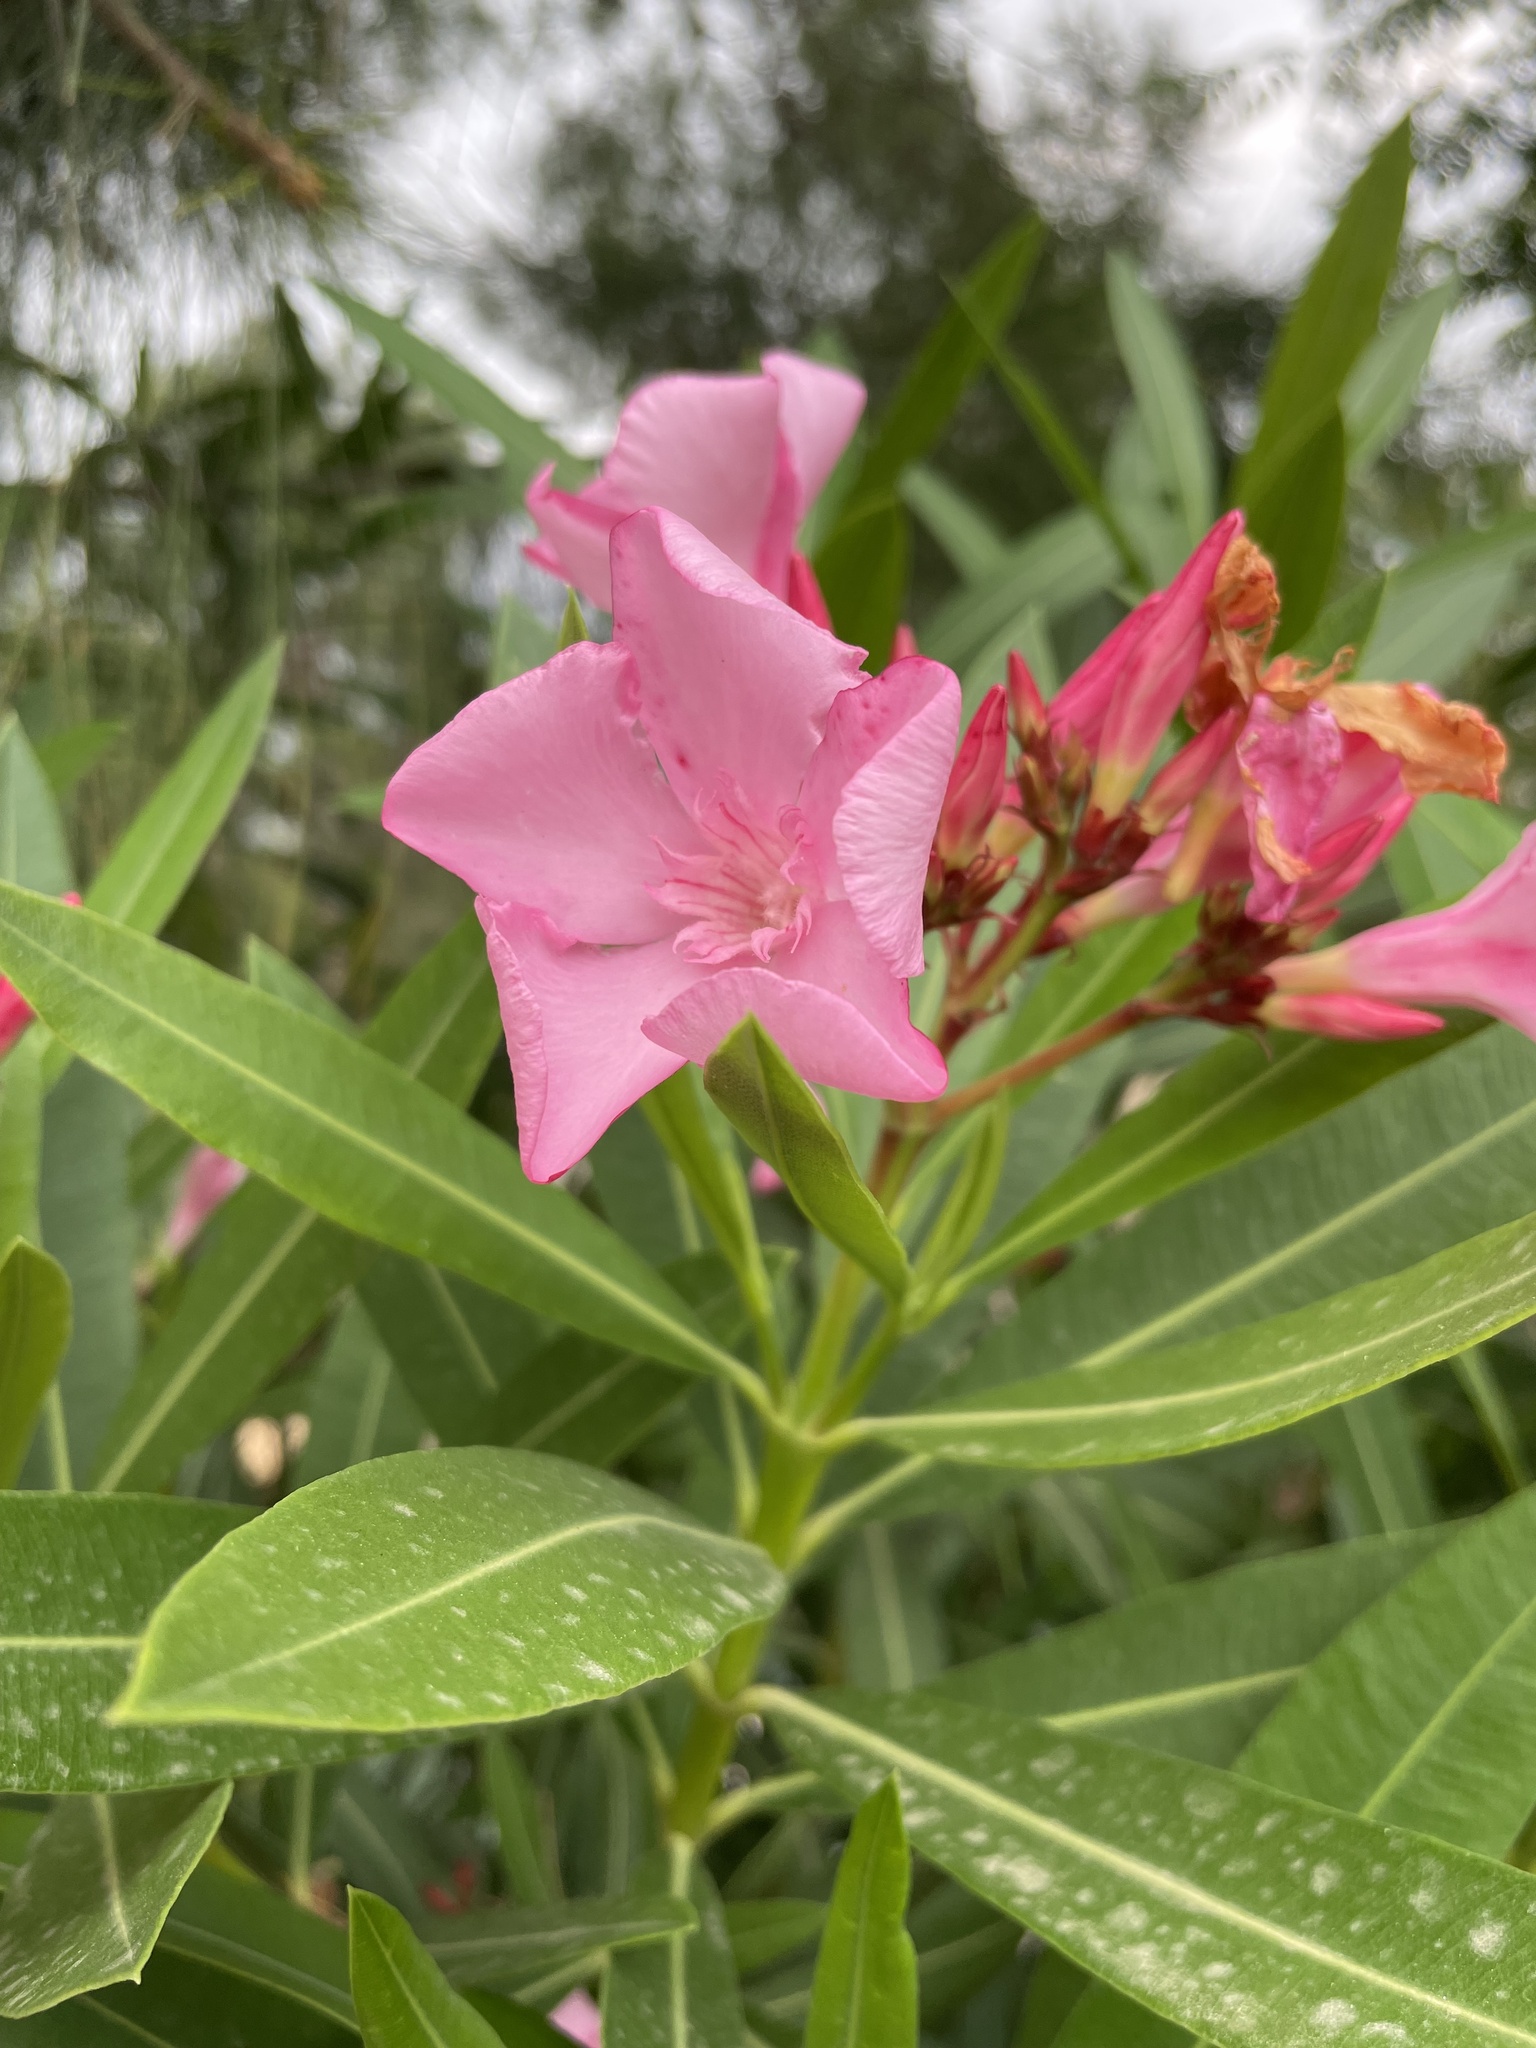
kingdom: Plantae
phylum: Tracheophyta
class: Magnoliopsida
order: Gentianales
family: Apocynaceae
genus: Nerium
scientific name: Nerium oleander
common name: Oleander
